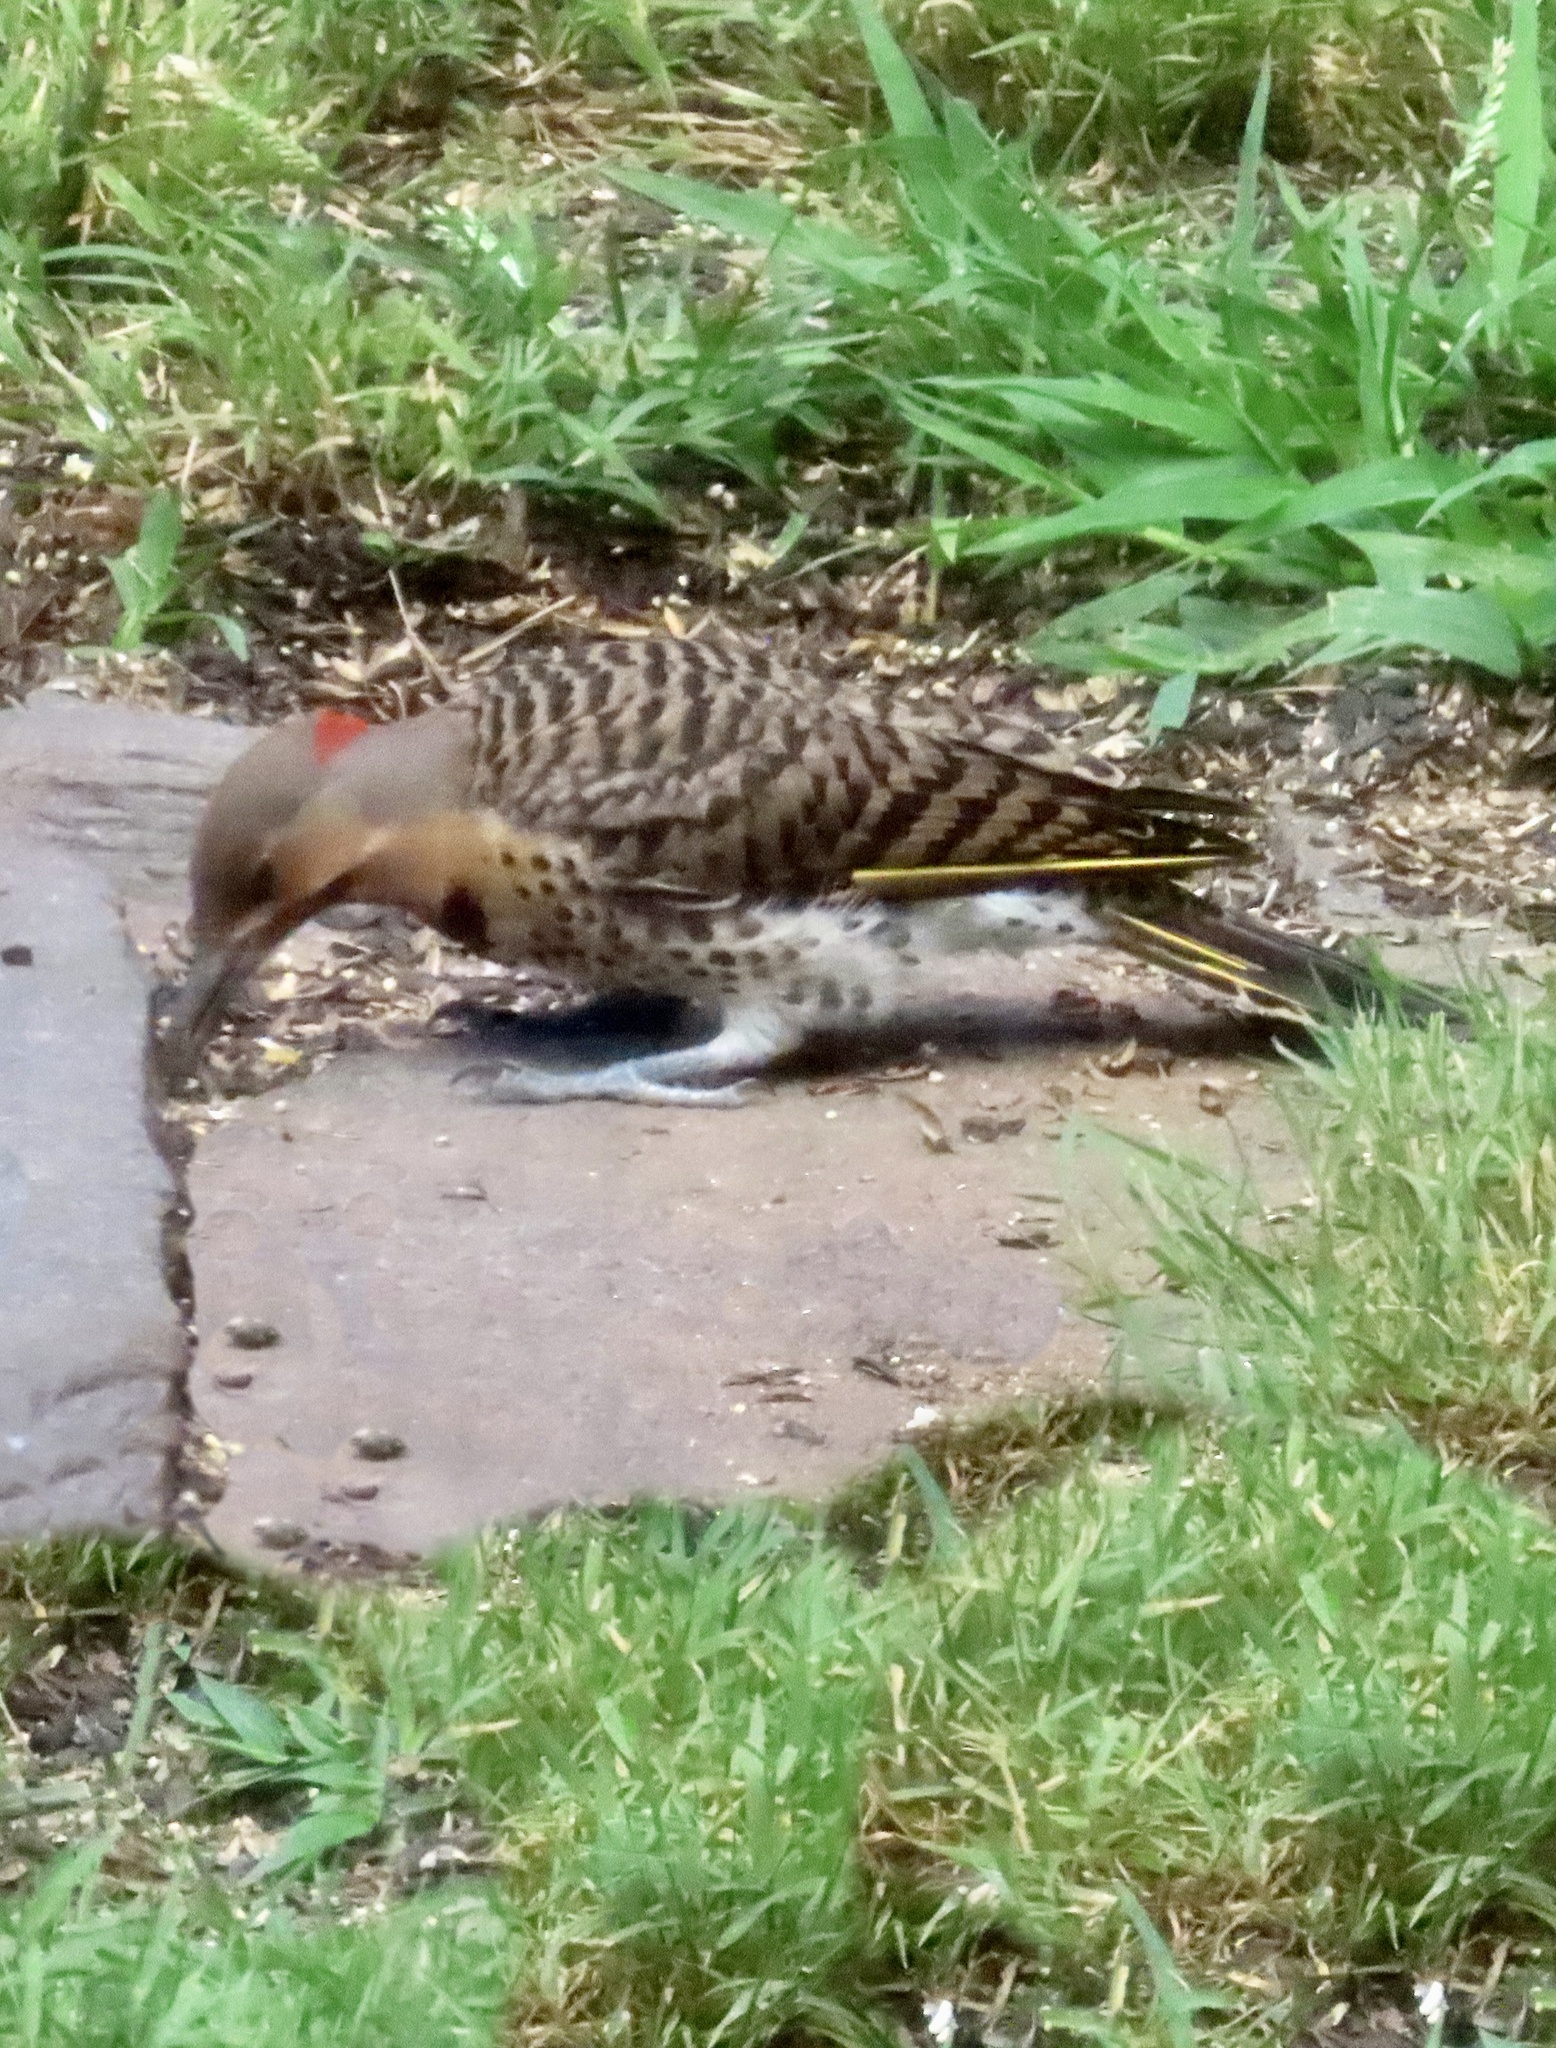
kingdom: Animalia
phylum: Chordata
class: Aves
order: Piciformes
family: Picidae
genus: Colaptes
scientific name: Colaptes auratus
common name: Northern flicker
